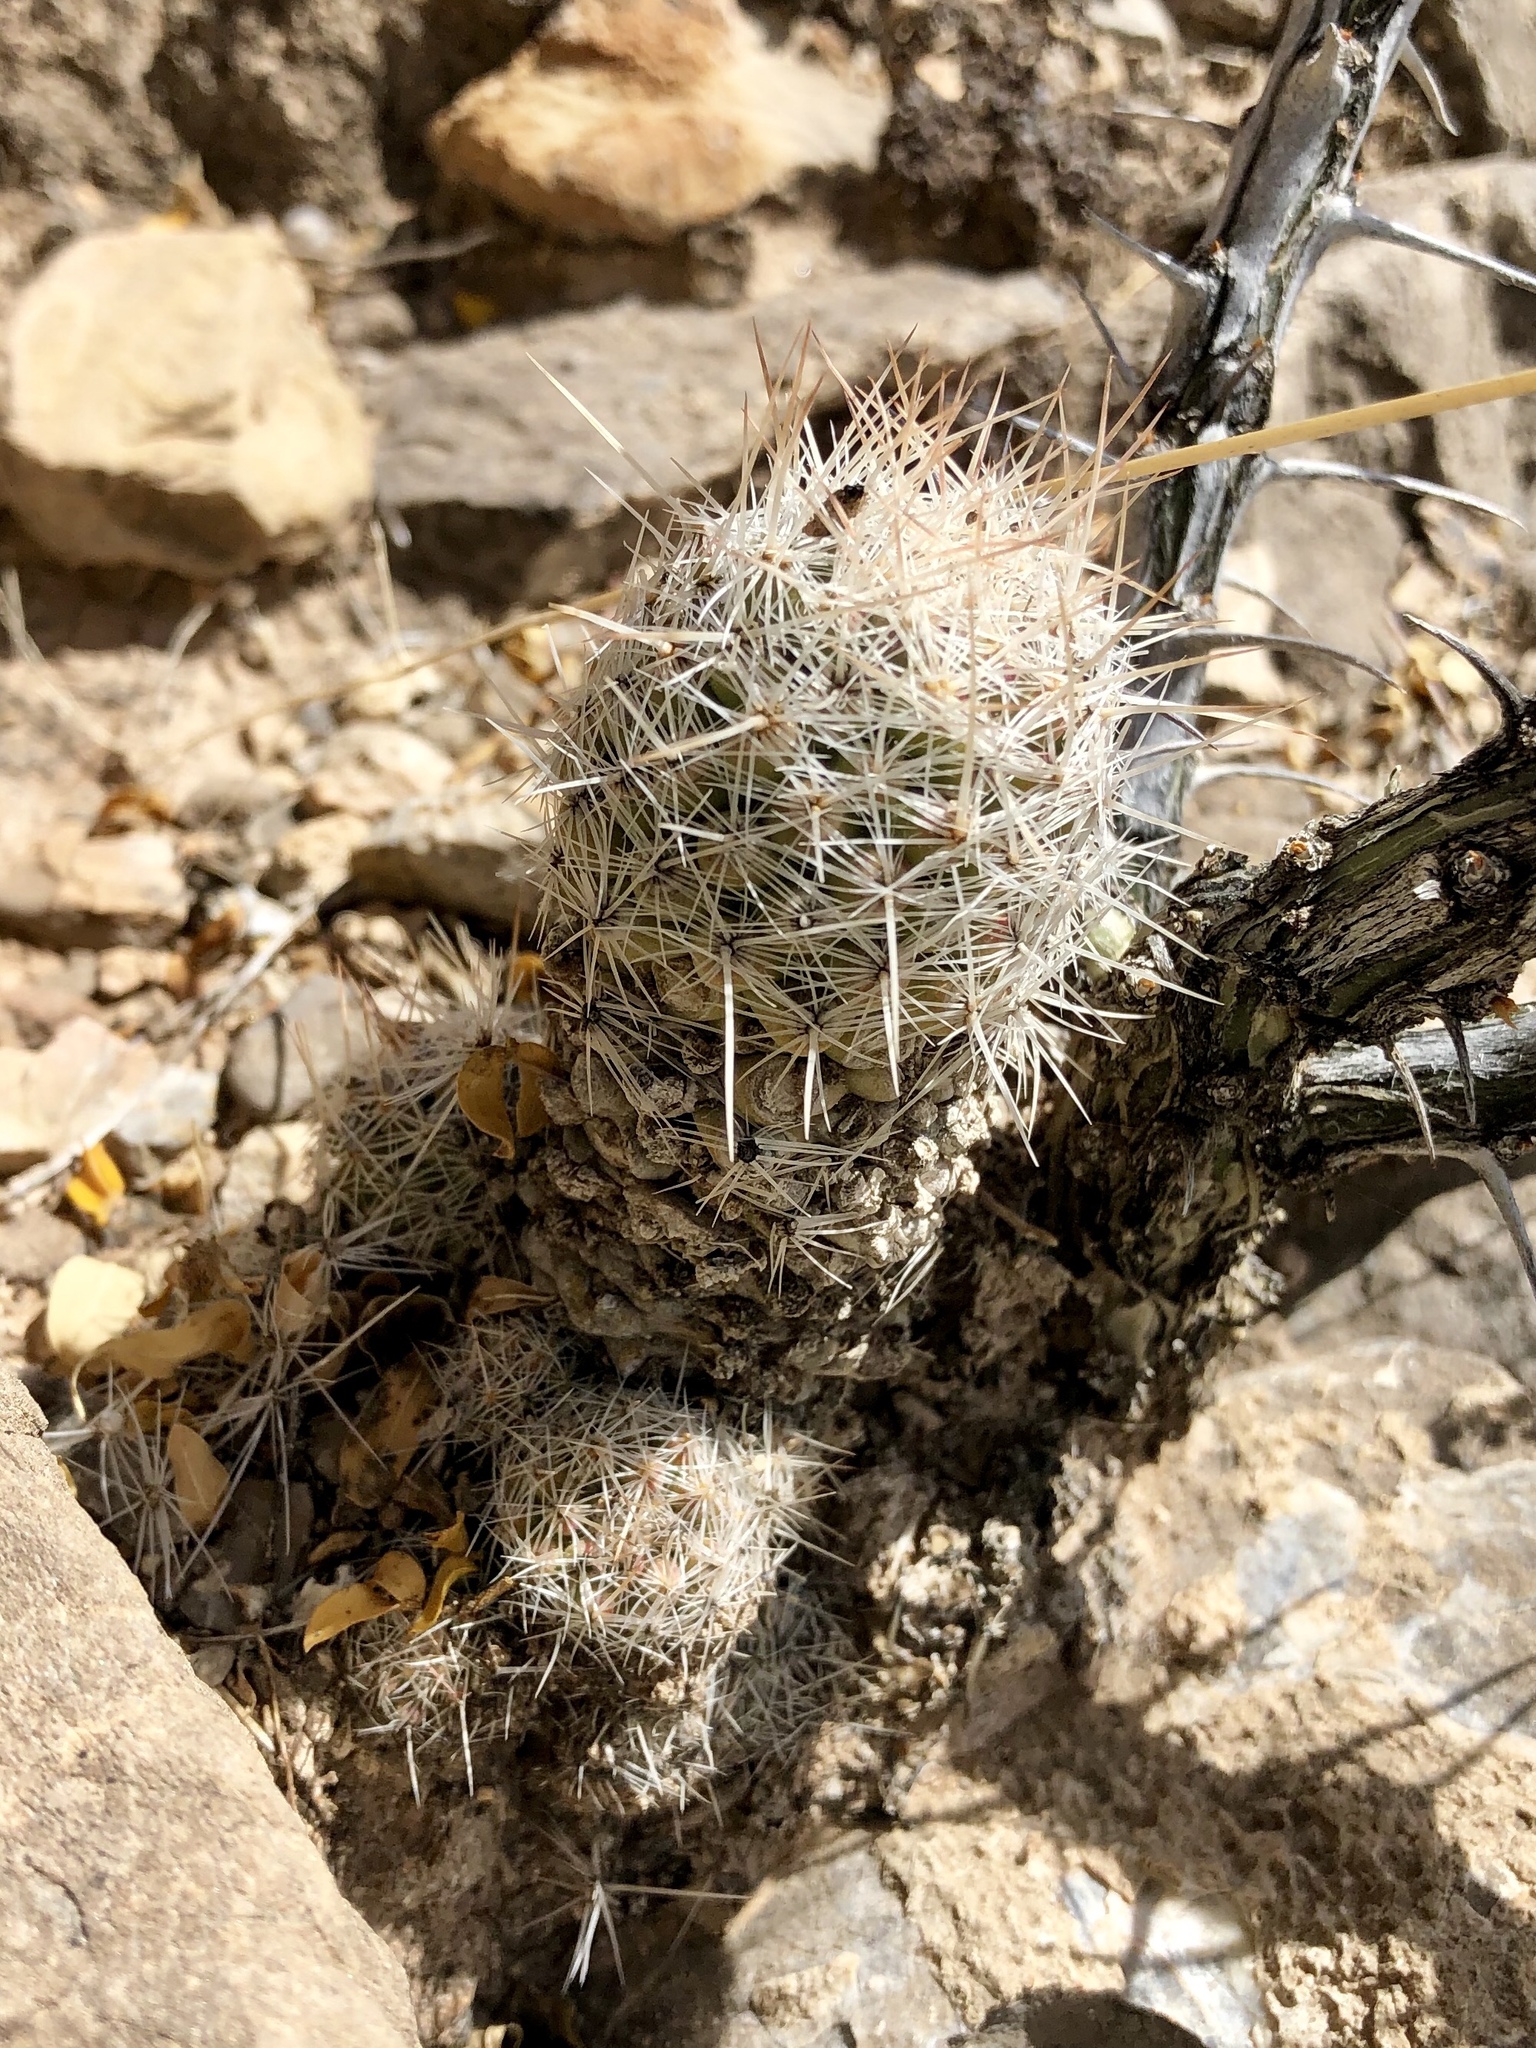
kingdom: Plantae
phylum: Tracheophyta
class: Magnoliopsida
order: Caryophyllales
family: Cactaceae
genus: Pelecyphora
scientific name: Pelecyphora tuberculosa
